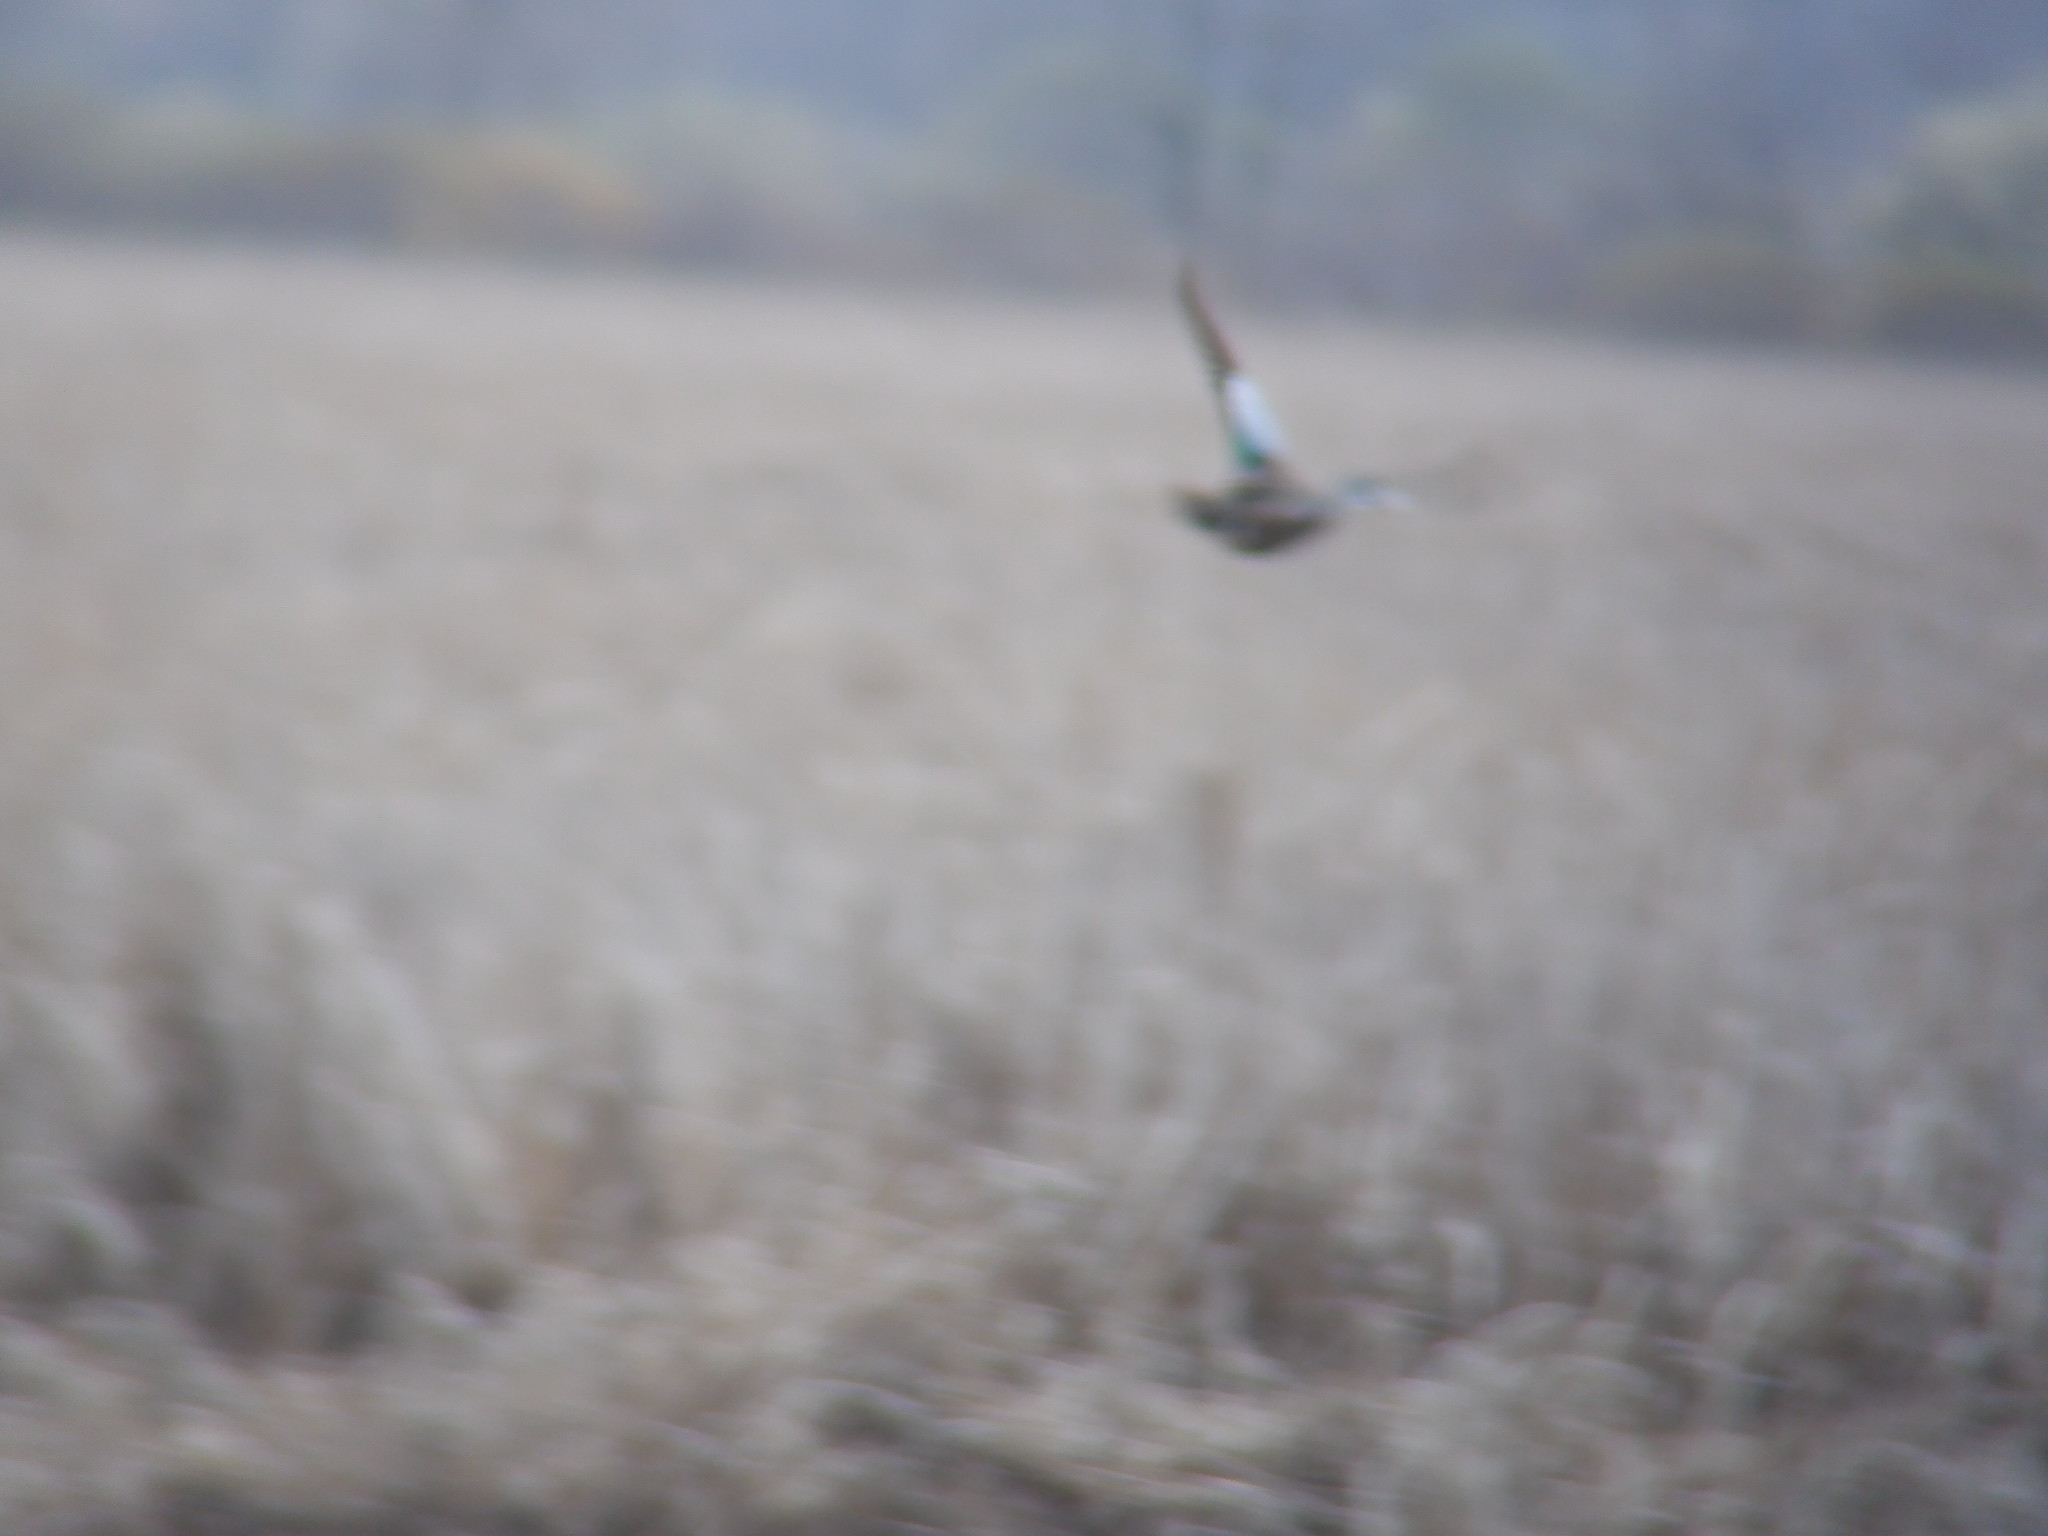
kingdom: Animalia
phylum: Chordata
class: Aves
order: Anseriformes
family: Anatidae
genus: Spatula
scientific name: Spatula discors
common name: Blue-winged teal
